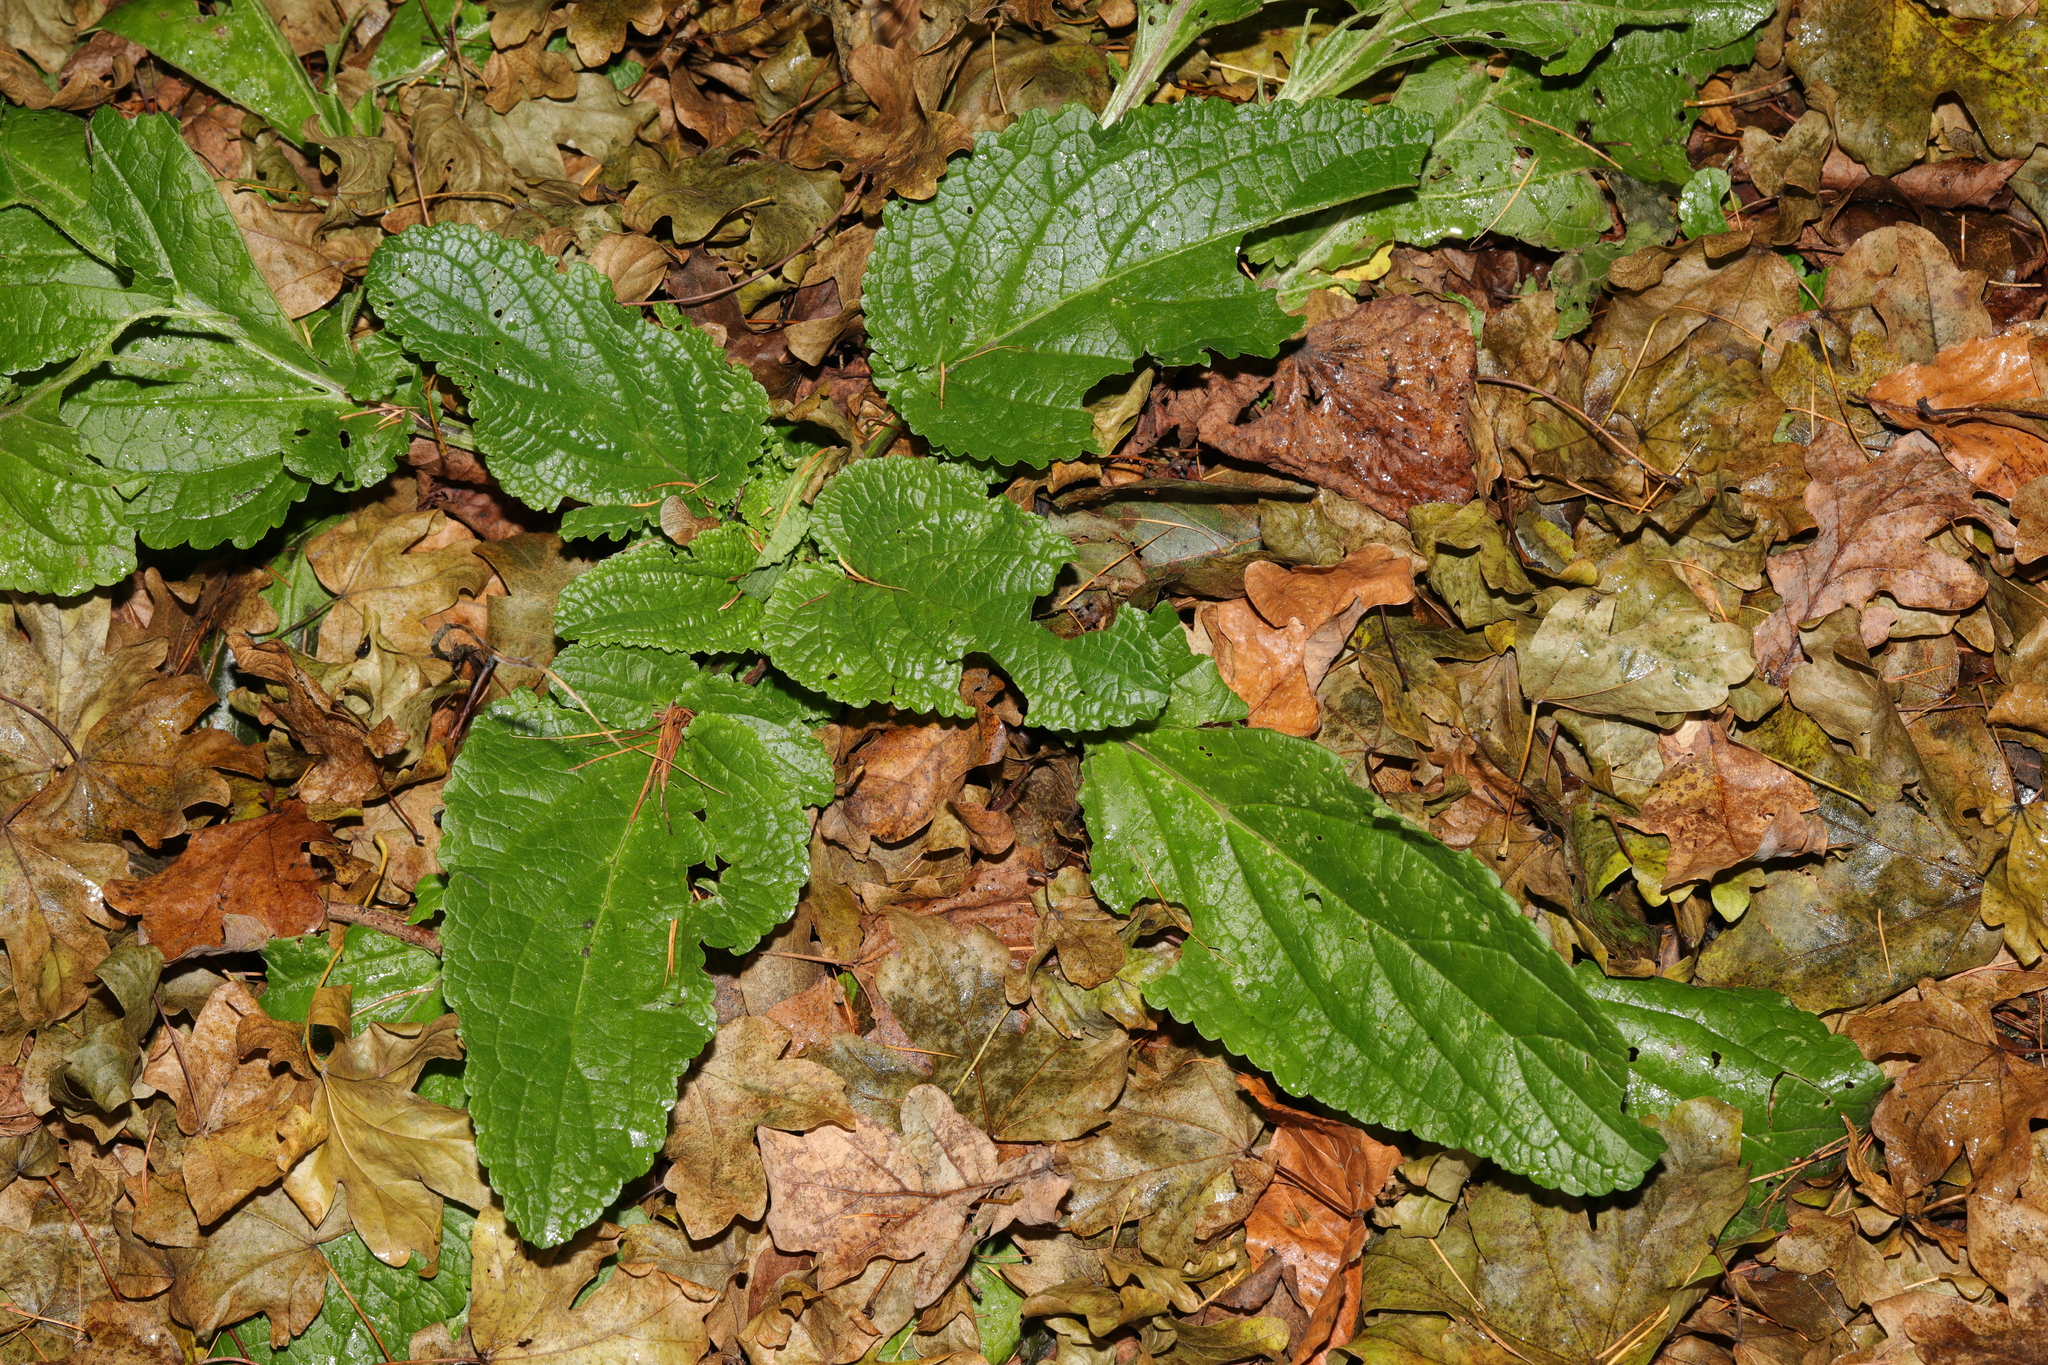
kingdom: Plantae
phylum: Tracheophyta
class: Magnoliopsida
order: Lamiales
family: Scrophulariaceae
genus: Scrophularia
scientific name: Scrophularia auriculata
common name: Water betony
